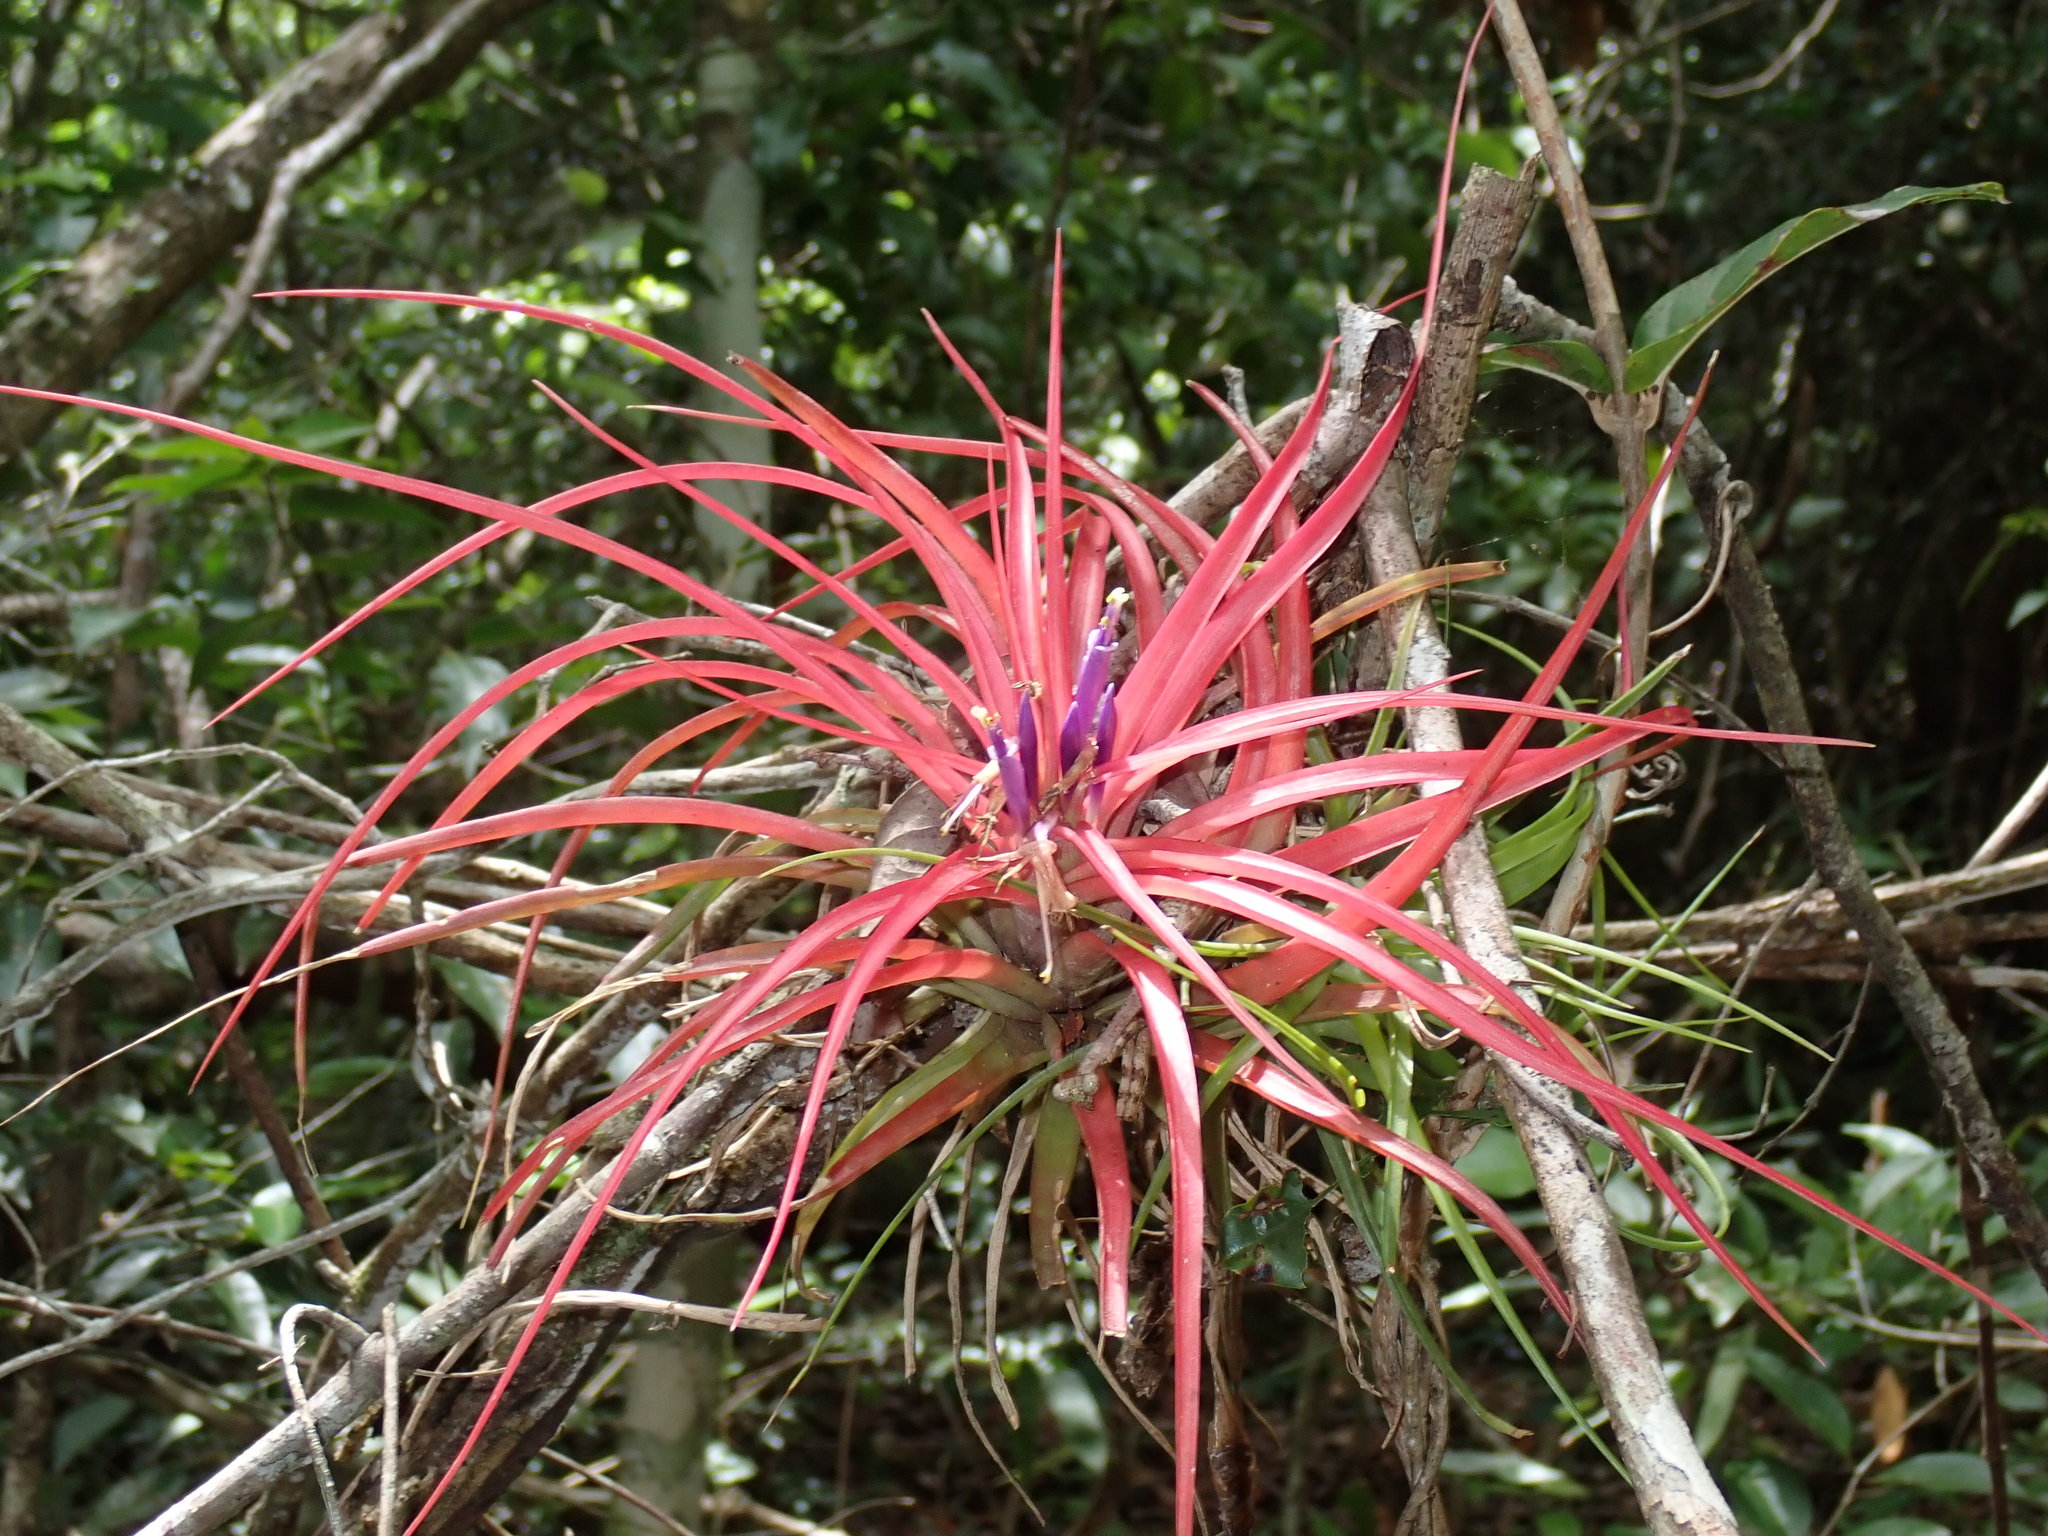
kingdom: Plantae
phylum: Tracheophyta
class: Liliopsida
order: Poales
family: Bromeliaceae
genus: Tillandsia
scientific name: Tillandsia brachycaulos
